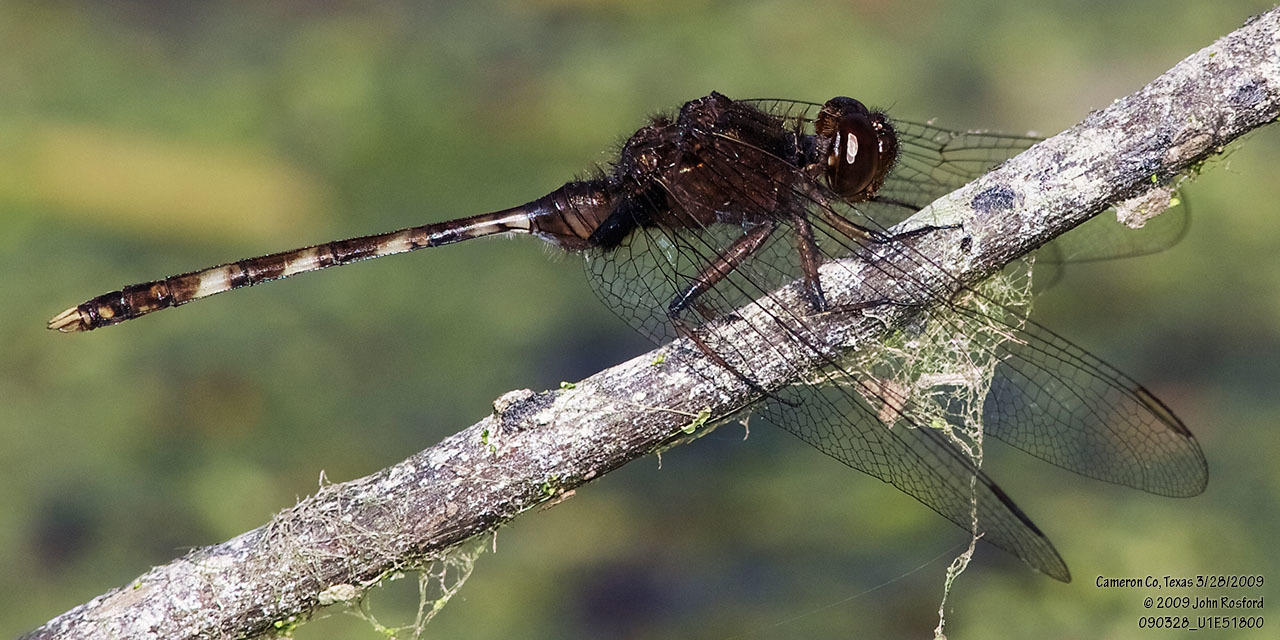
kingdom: Animalia
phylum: Arthropoda
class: Insecta
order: Odonata
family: Libellulidae
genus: Erythemis
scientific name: Erythemis plebeja
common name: Pin-tailed pondhawk
